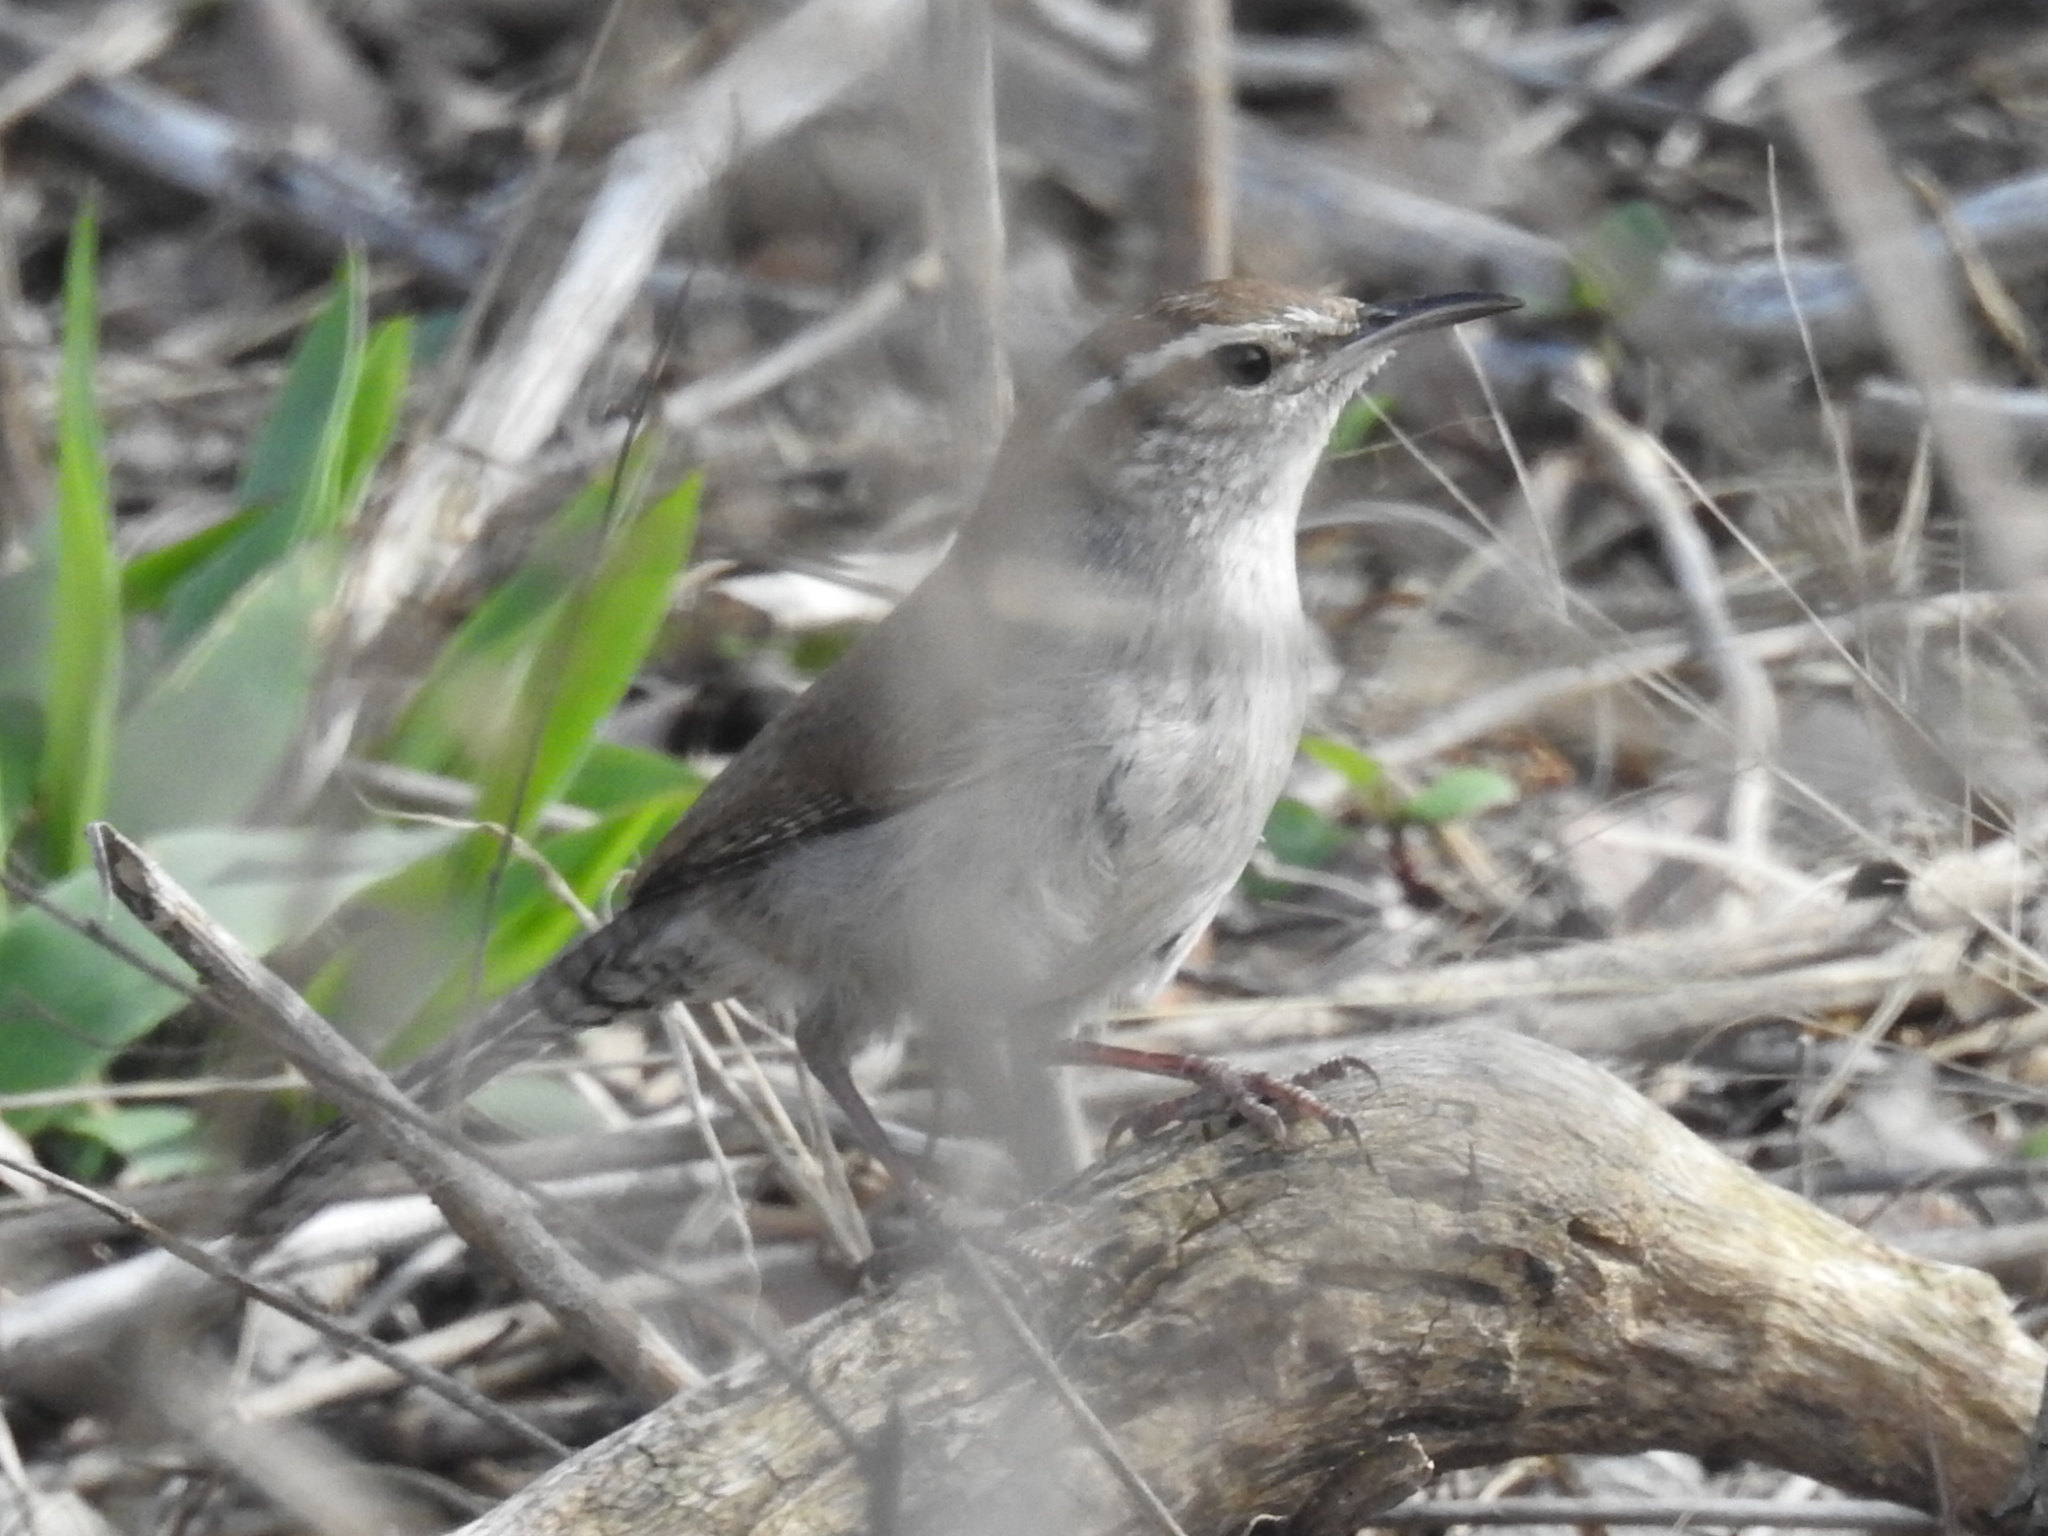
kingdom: Animalia
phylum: Chordata
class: Aves
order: Passeriformes
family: Troglodytidae
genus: Thryomanes
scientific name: Thryomanes bewickii
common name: Bewick's wren
